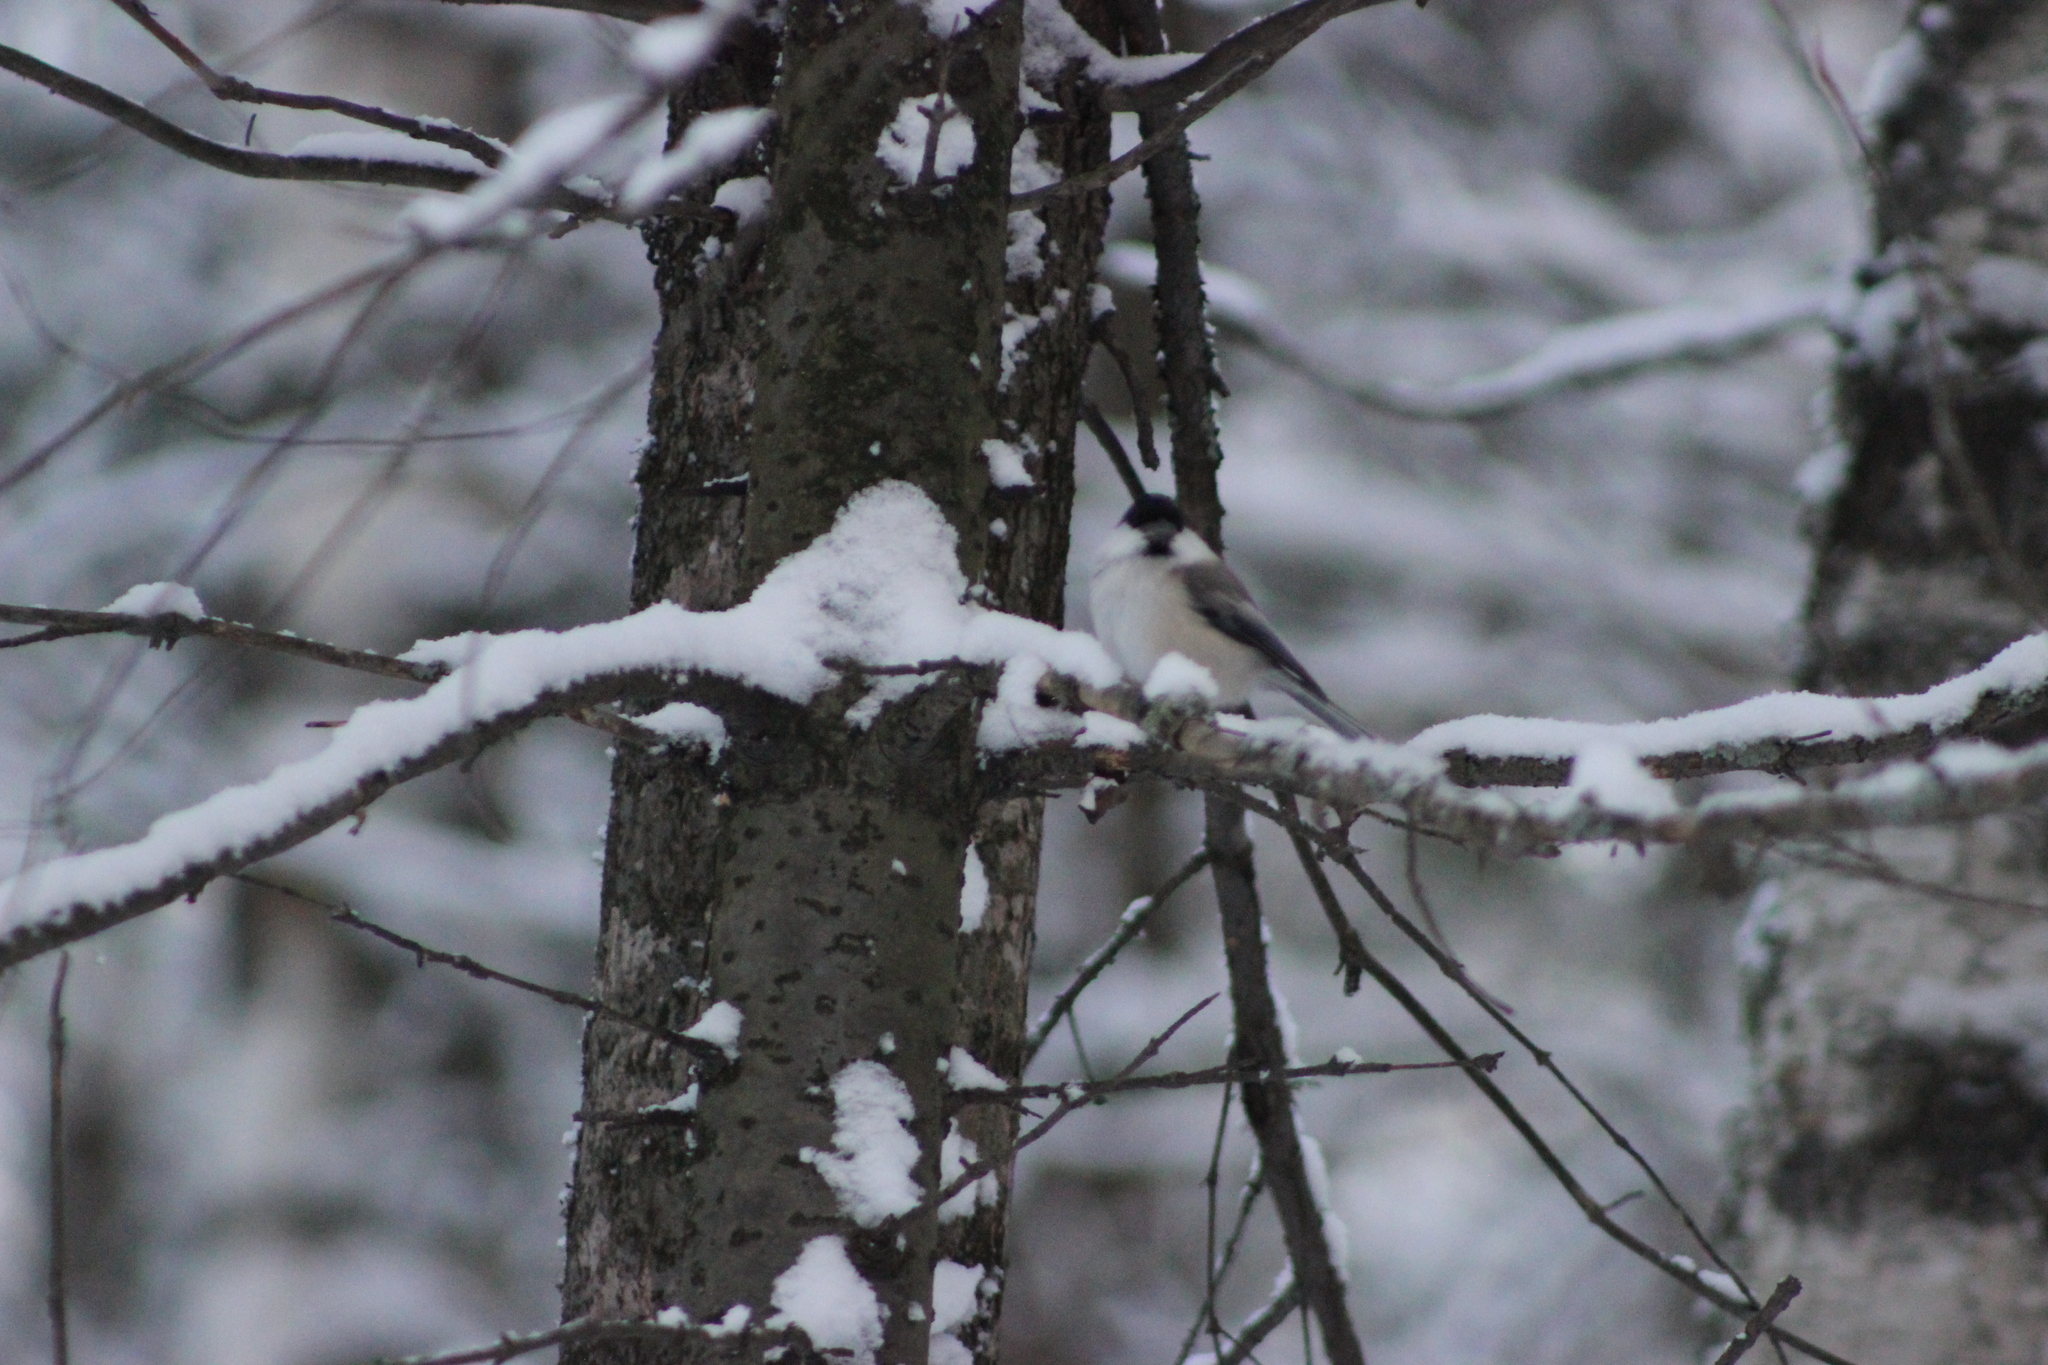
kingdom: Animalia
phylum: Chordata
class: Aves
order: Passeriformes
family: Paridae
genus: Poecile
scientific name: Poecile montanus
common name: Willow tit
